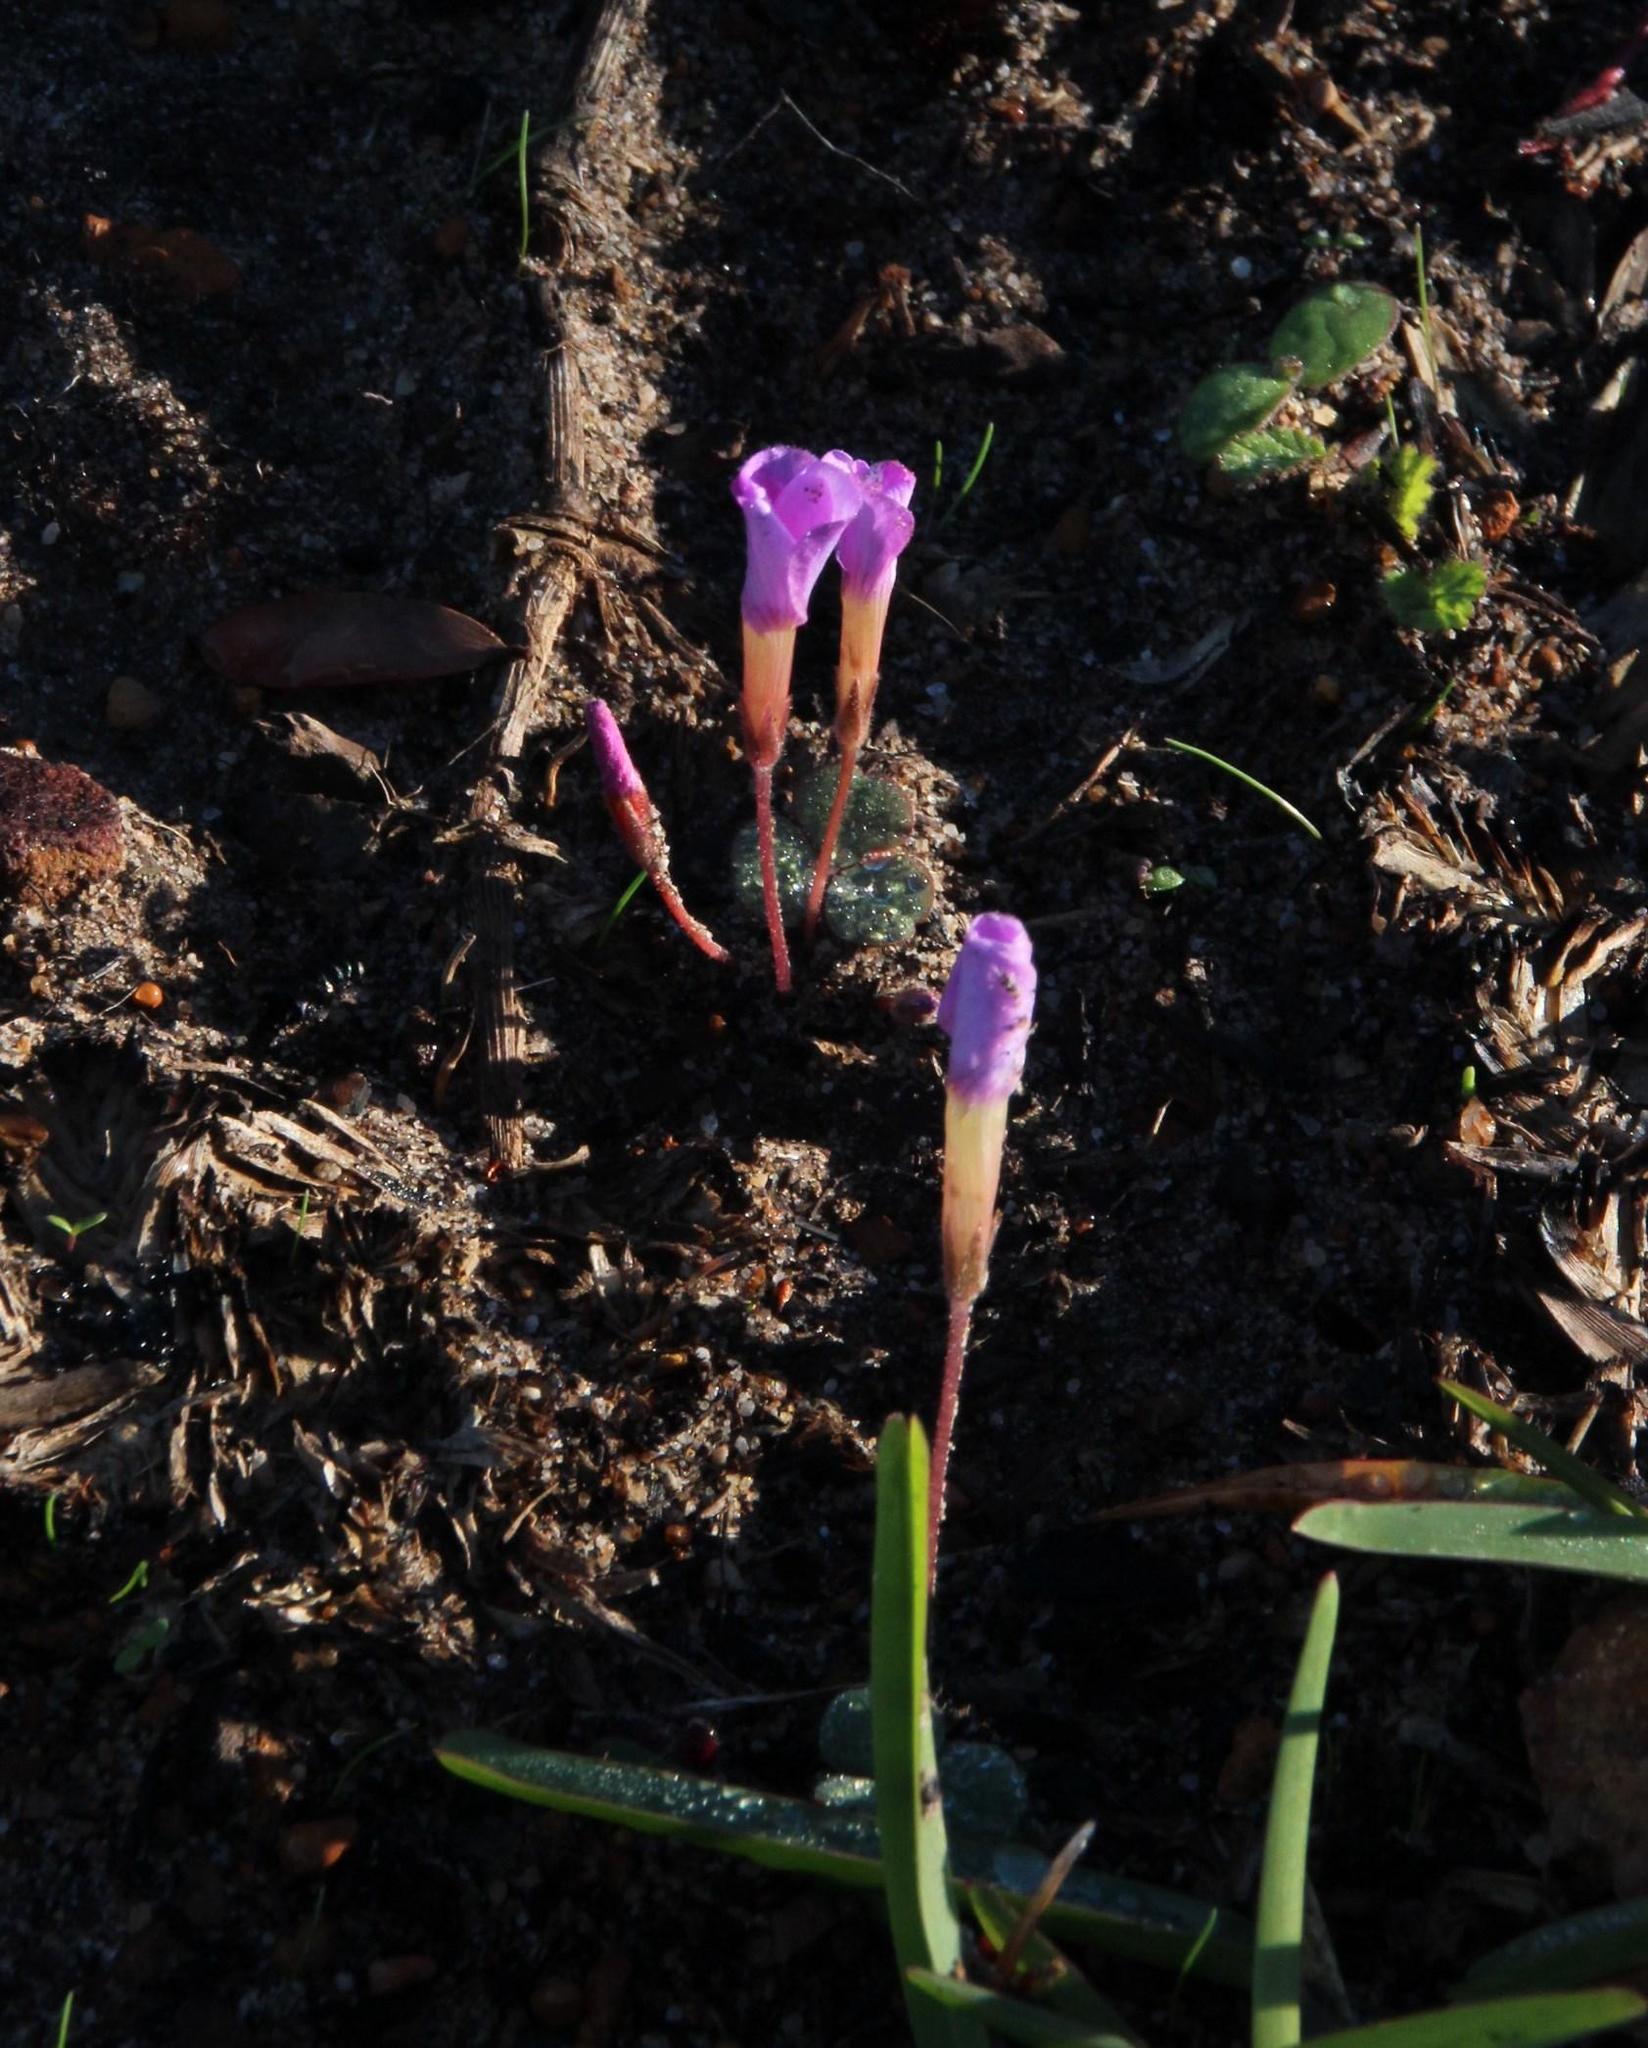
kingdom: Plantae
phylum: Tracheophyta
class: Magnoliopsida
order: Oxalidales
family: Oxalidaceae
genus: Oxalis
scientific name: Oxalis eckloniana
